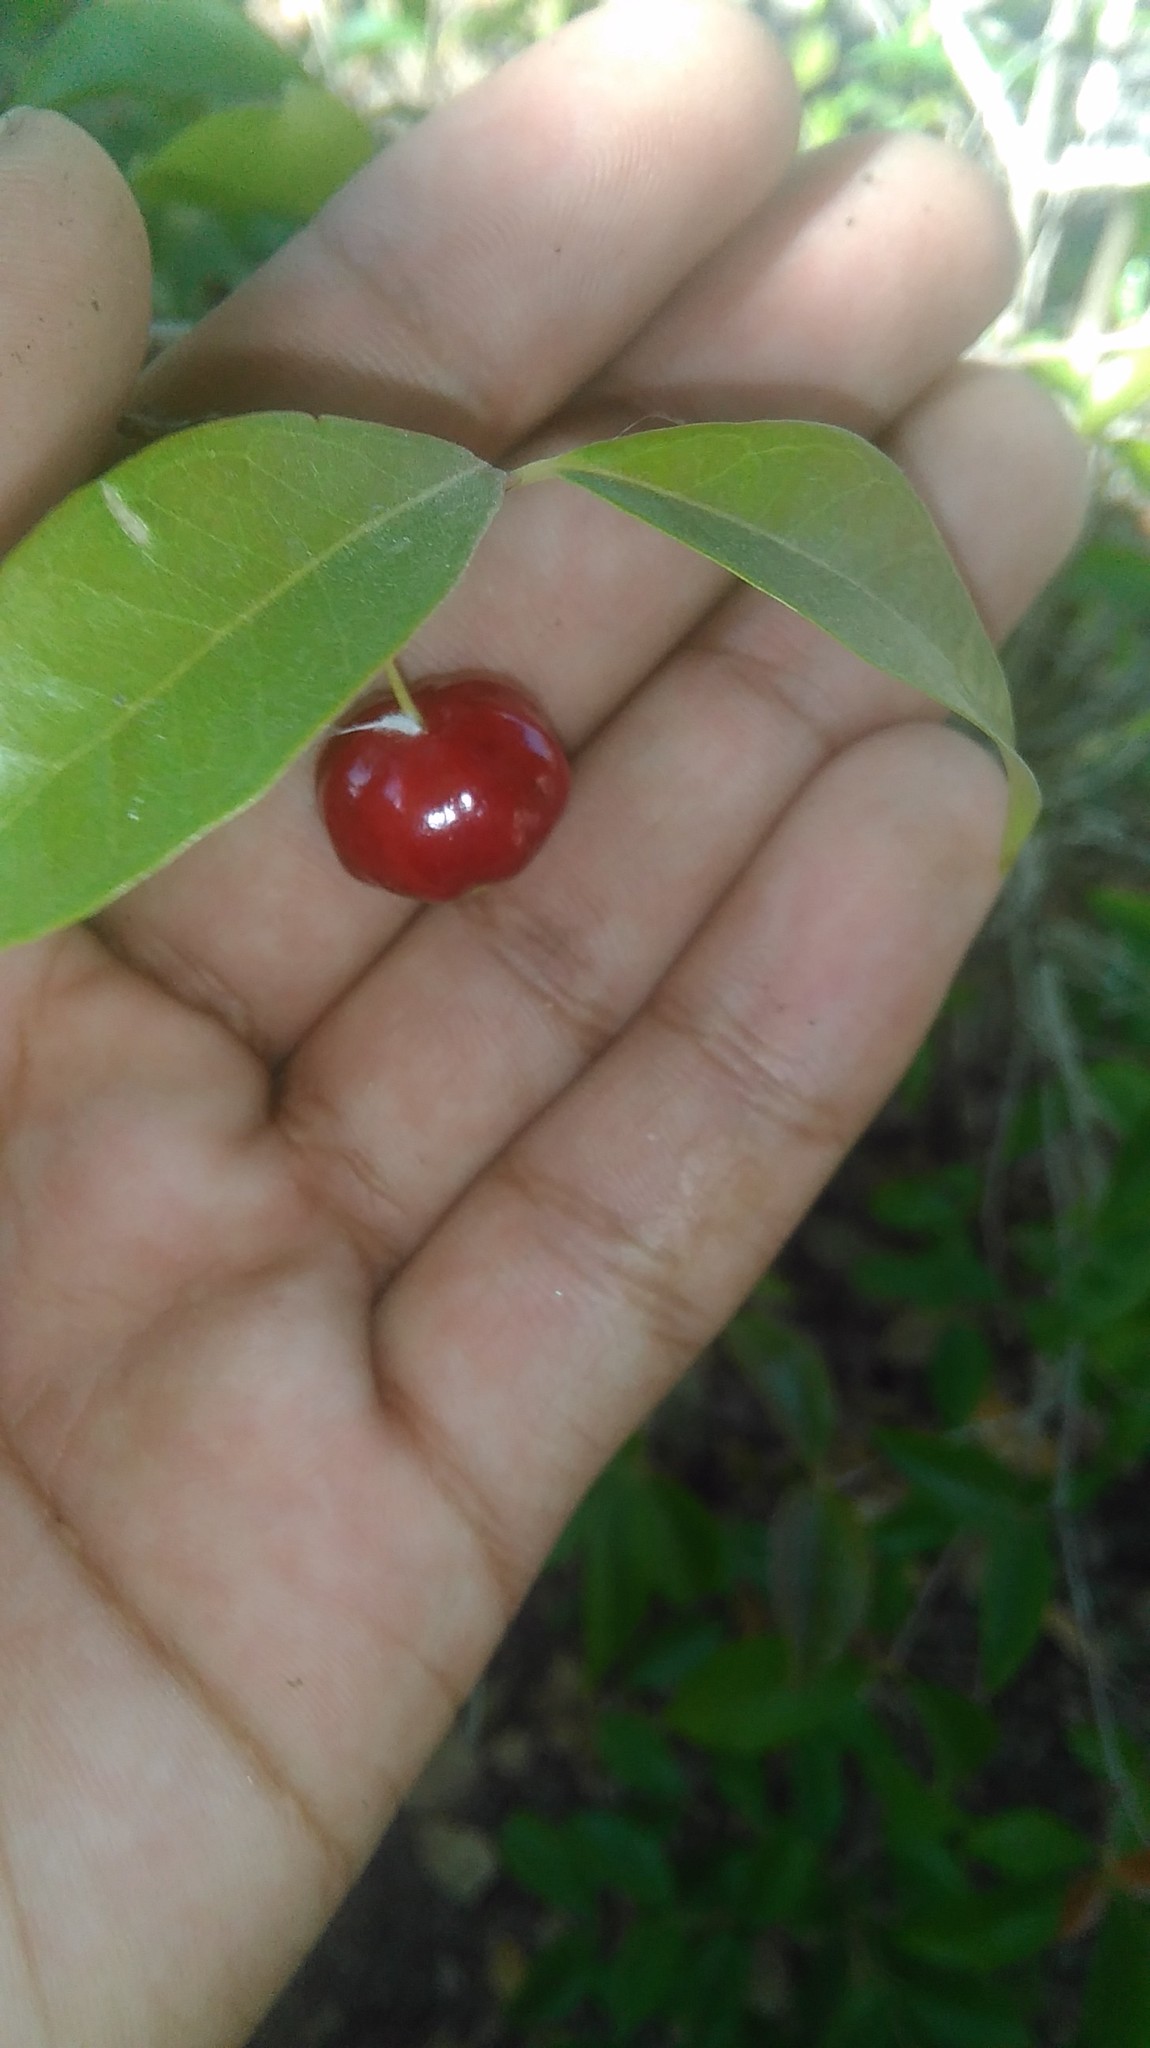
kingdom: Plantae
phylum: Tracheophyta
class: Magnoliopsida
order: Myrtales
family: Myrtaceae
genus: Eugenia
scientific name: Eugenia uniflora
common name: Surinam cherry
